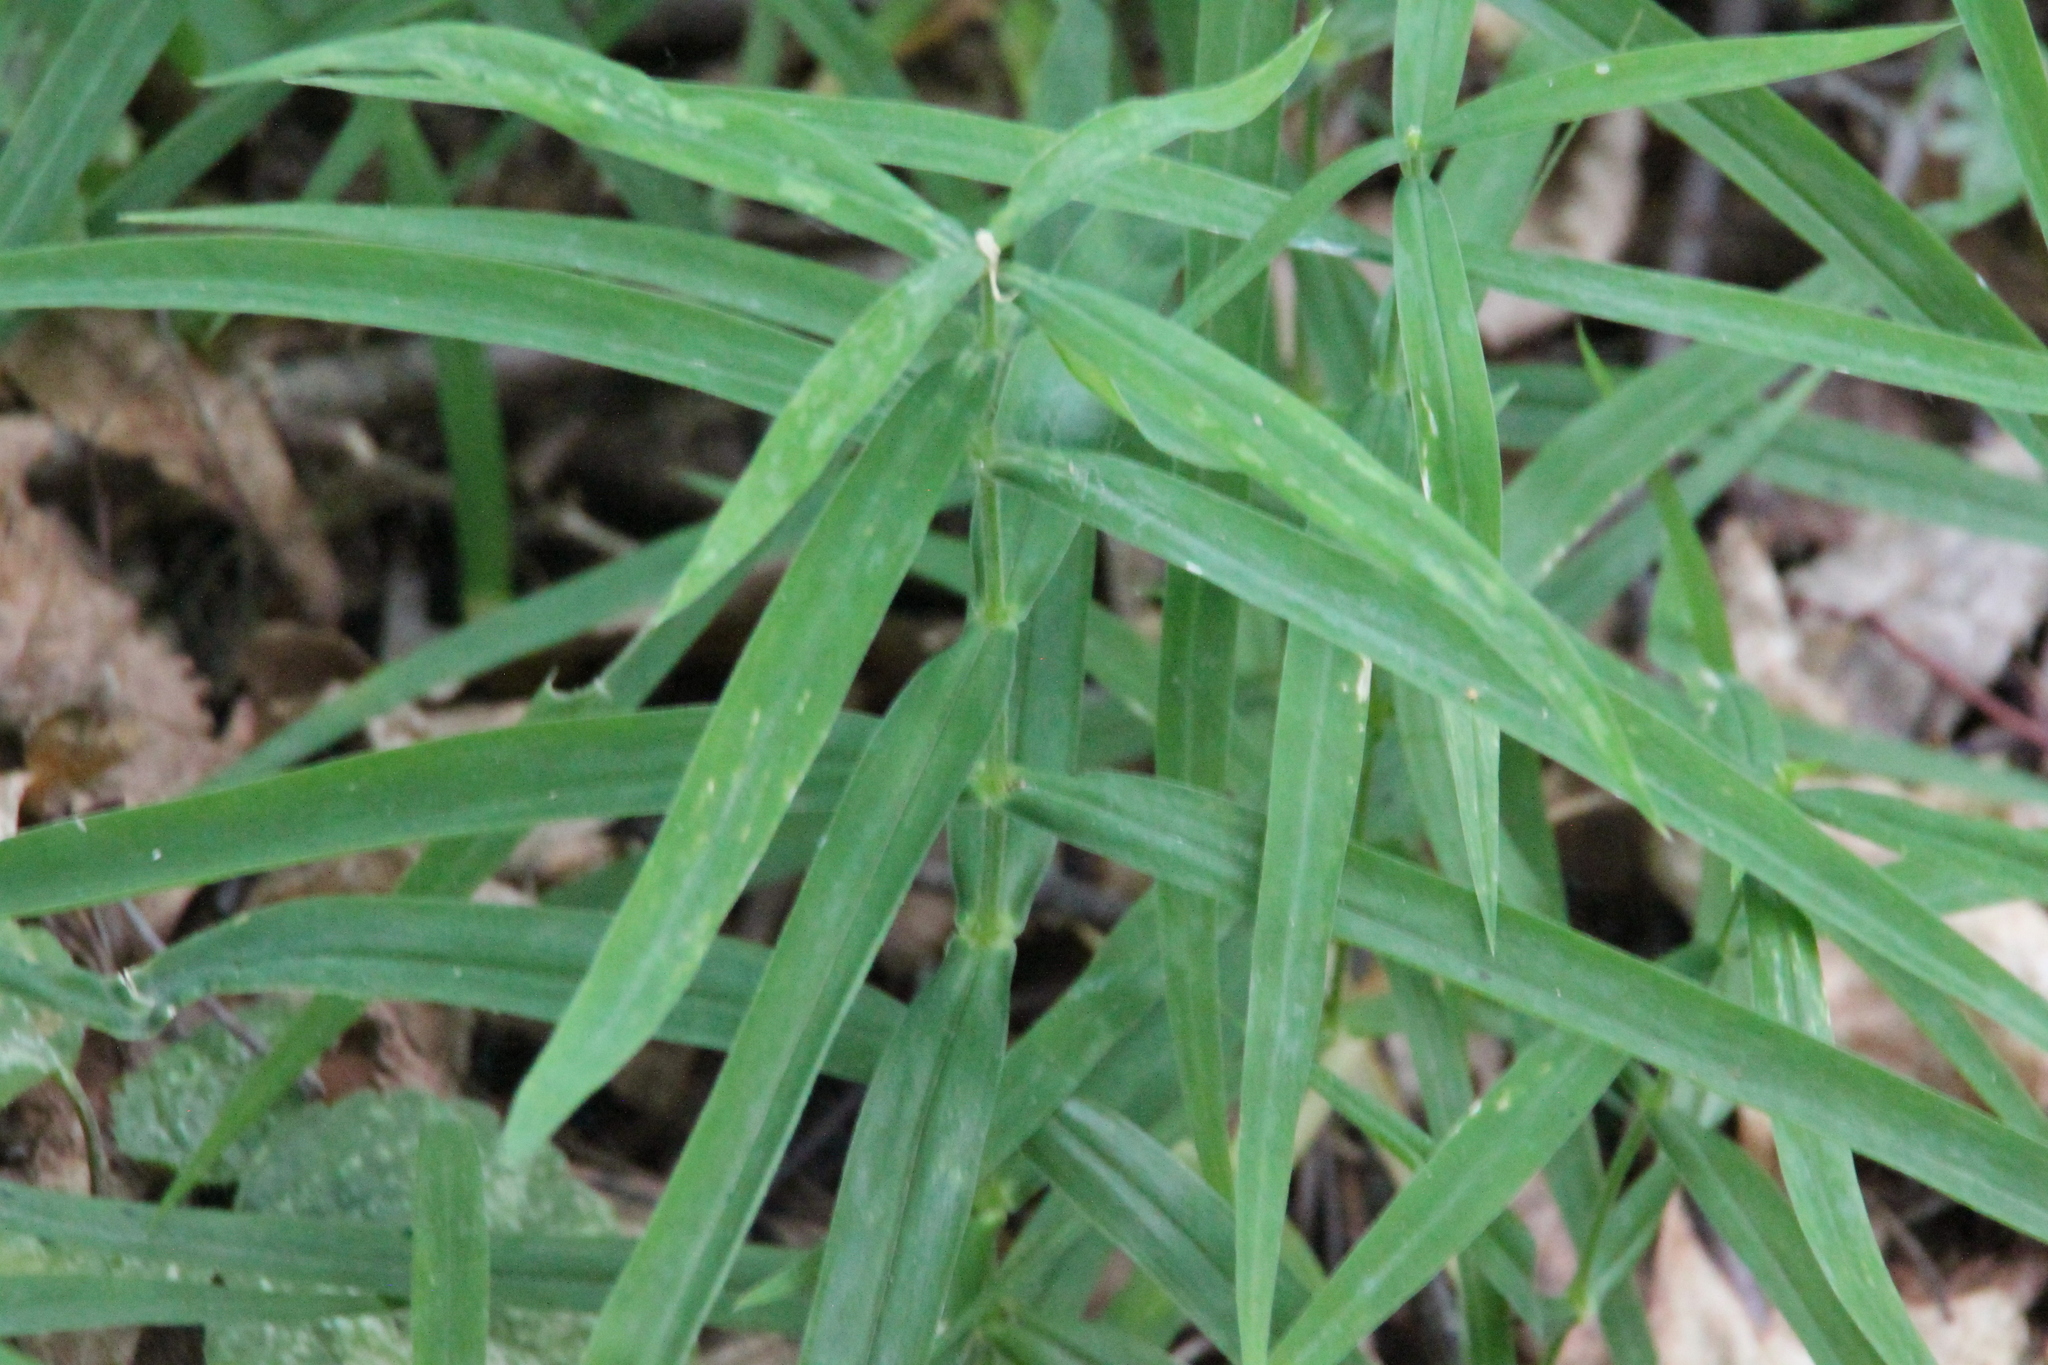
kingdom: Plantae
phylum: Tracheophyta
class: Magnoliopsida
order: Caryophyllales
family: Caryophyllaceae
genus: Rabelera
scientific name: Rabelera holostea
